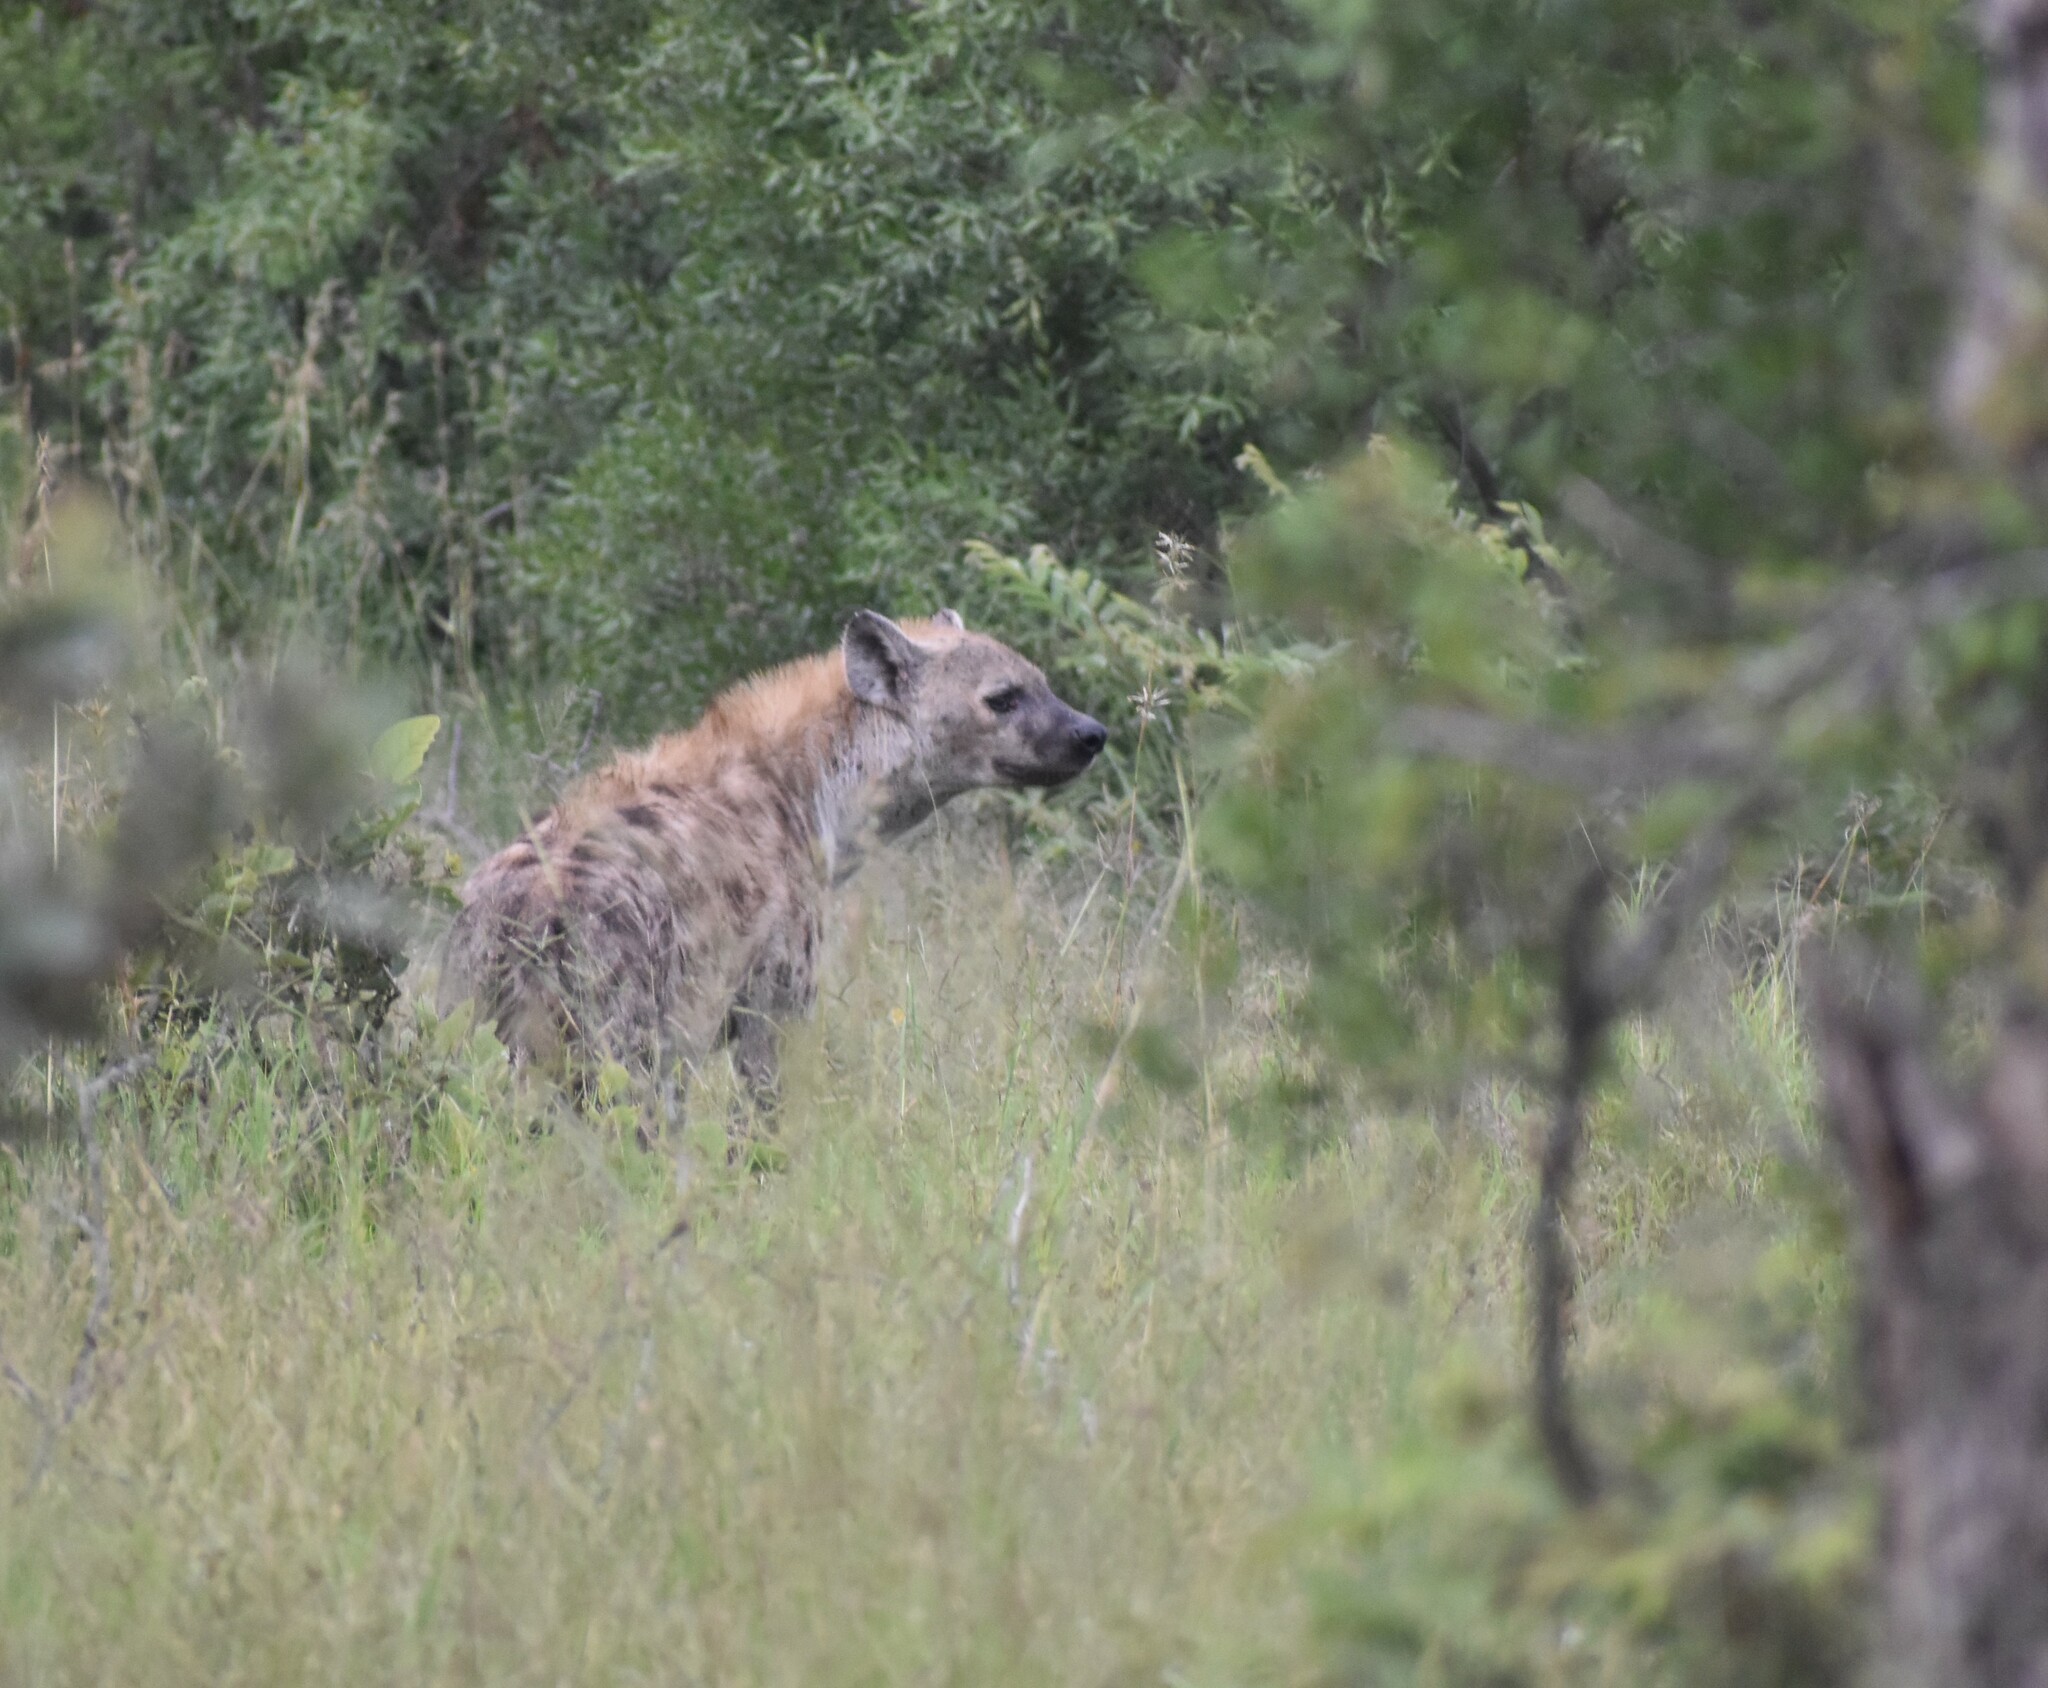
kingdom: Animalia
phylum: Chordata
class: Mammalia
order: Carnivora
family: Hyaenidae
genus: Crocuta
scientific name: Crocuta crocuta
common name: Spotted hyaena
